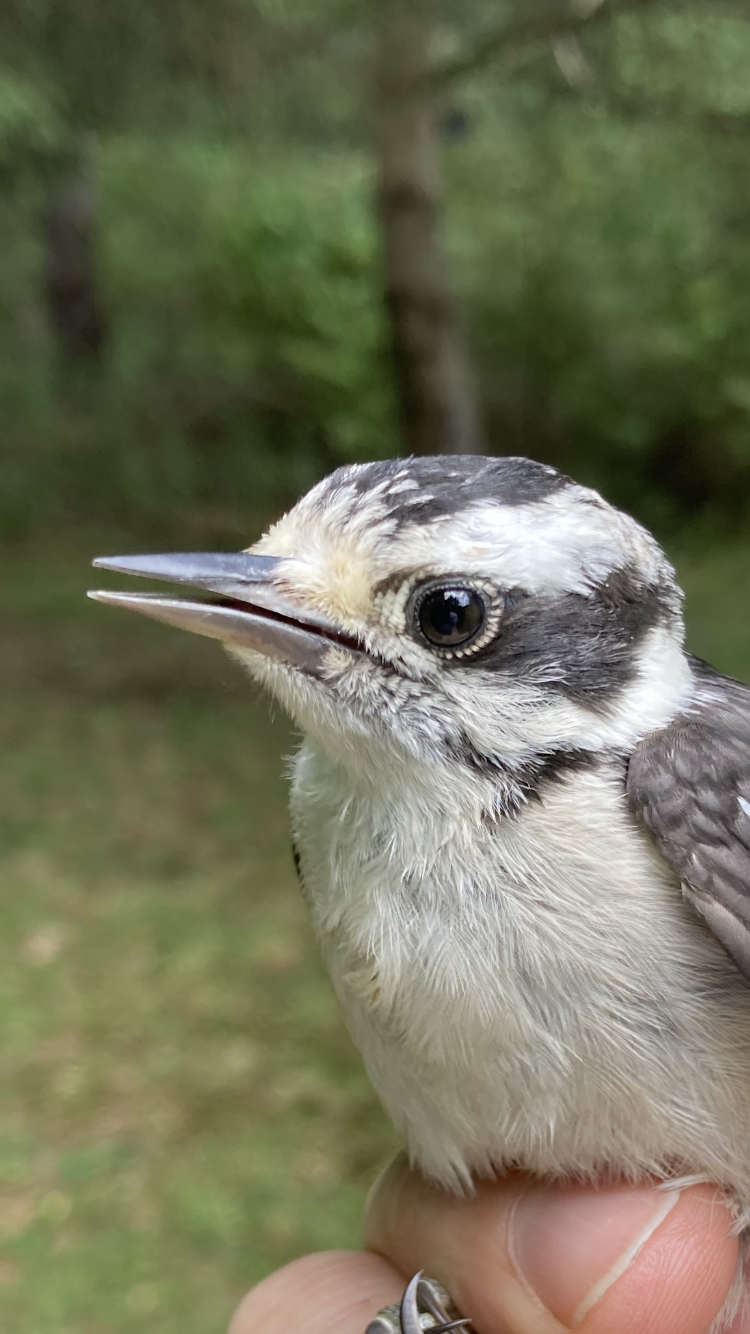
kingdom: Animalia
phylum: Chordata
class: Aves
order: Piciformes
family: Picidae
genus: Dryobates
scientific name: Dryobates pubescens
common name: Downy woodpecker
